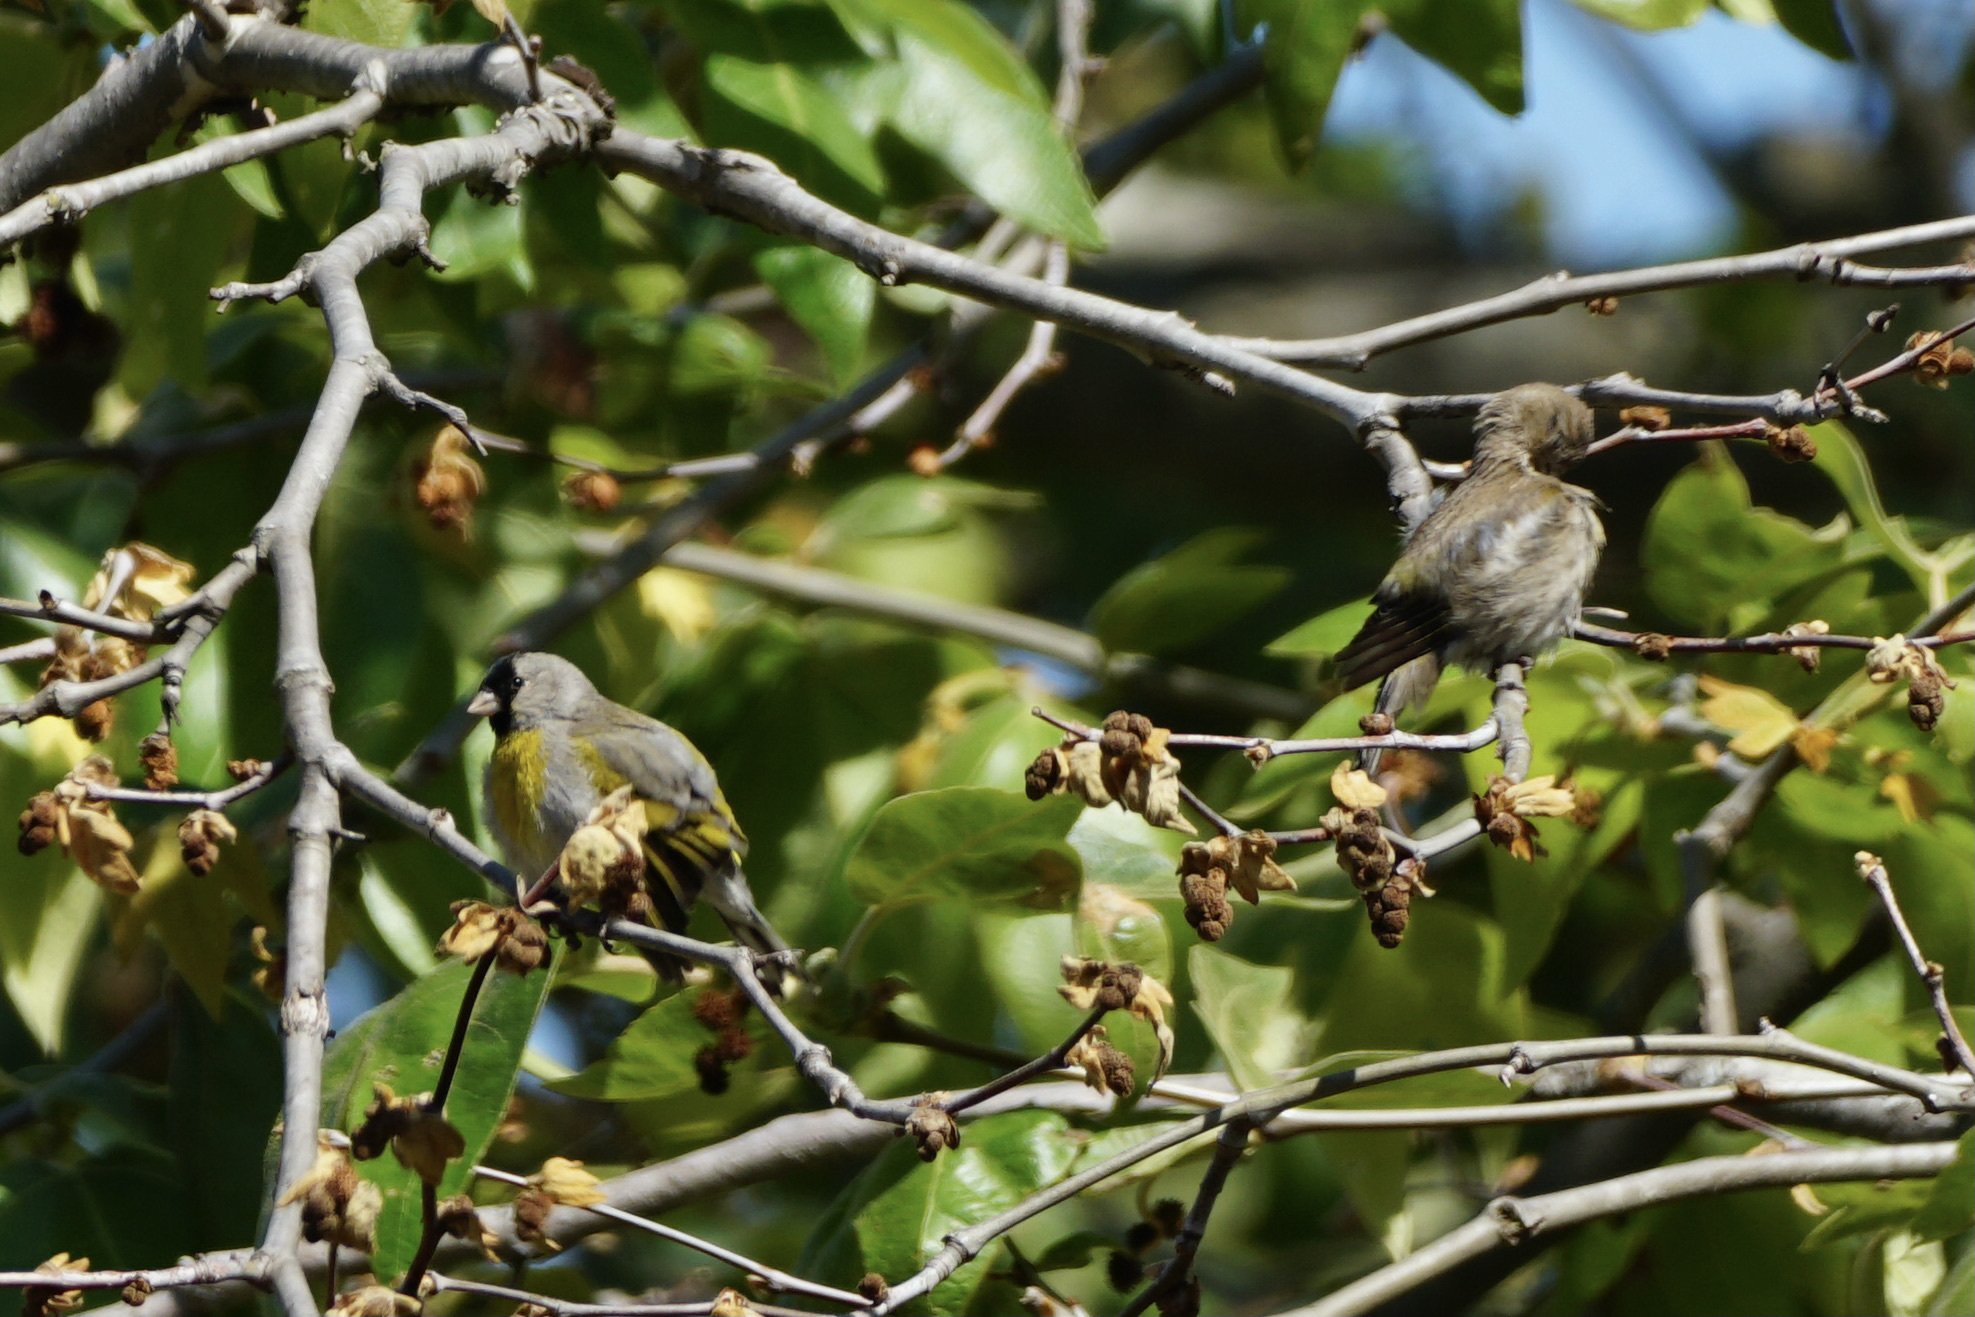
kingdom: Animalia
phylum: Chordata
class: Aves
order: Passeriformes
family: Fringillidae
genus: Spinus
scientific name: Spinus lawrencei
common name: Lawrence's goldfinch
